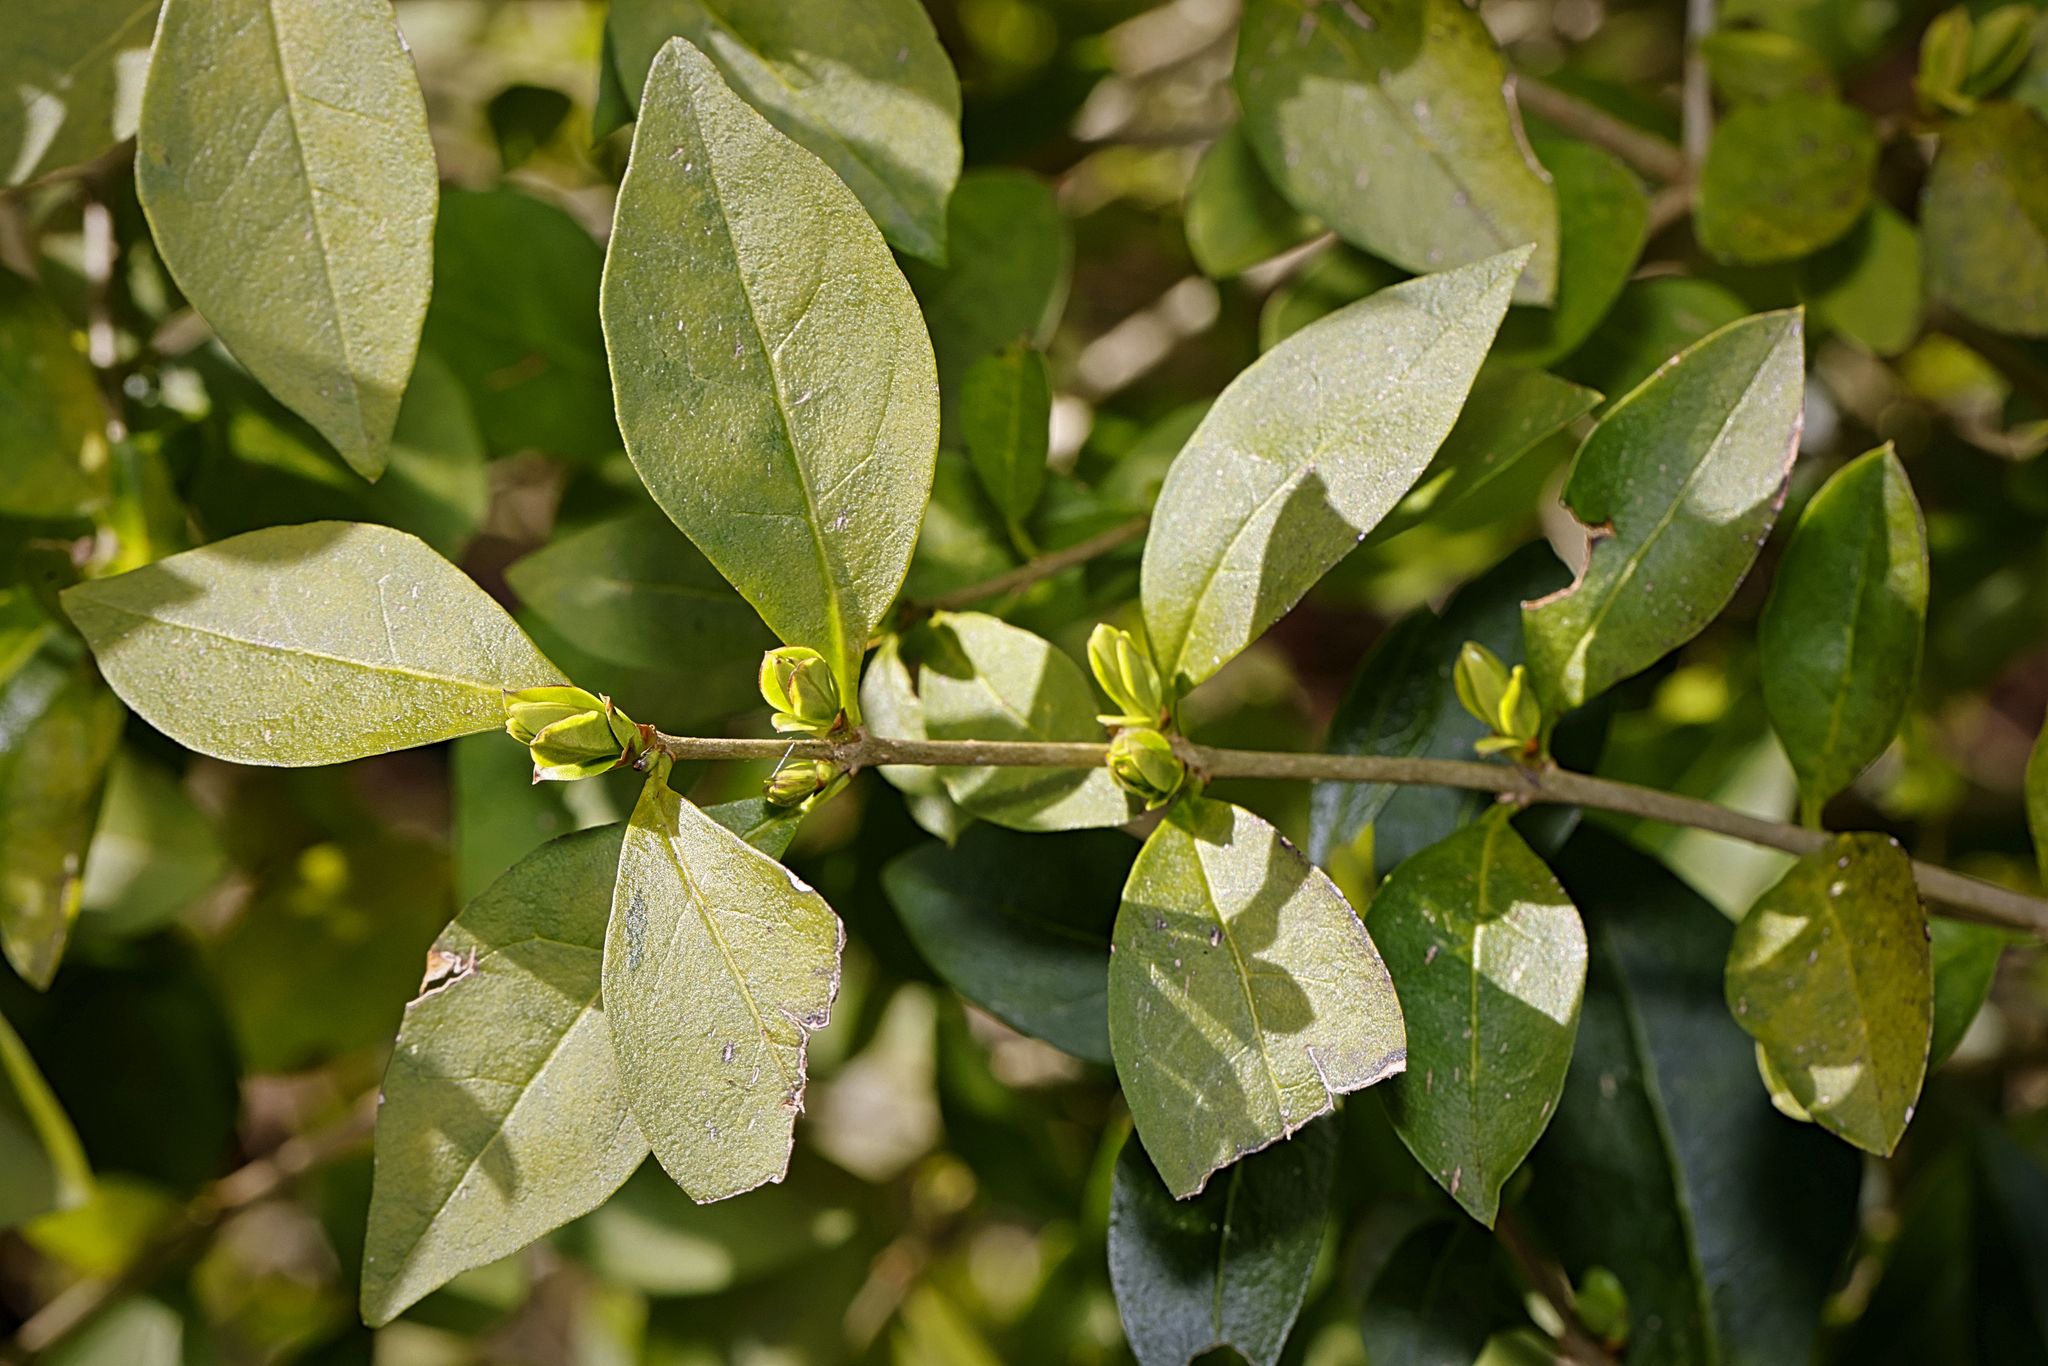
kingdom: Plantae
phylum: Tracheophyta
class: Magnoliopsida
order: Lamiales
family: Oleaceae
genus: Ligustrum
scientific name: Ligustrum ovalifolium
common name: California privet
